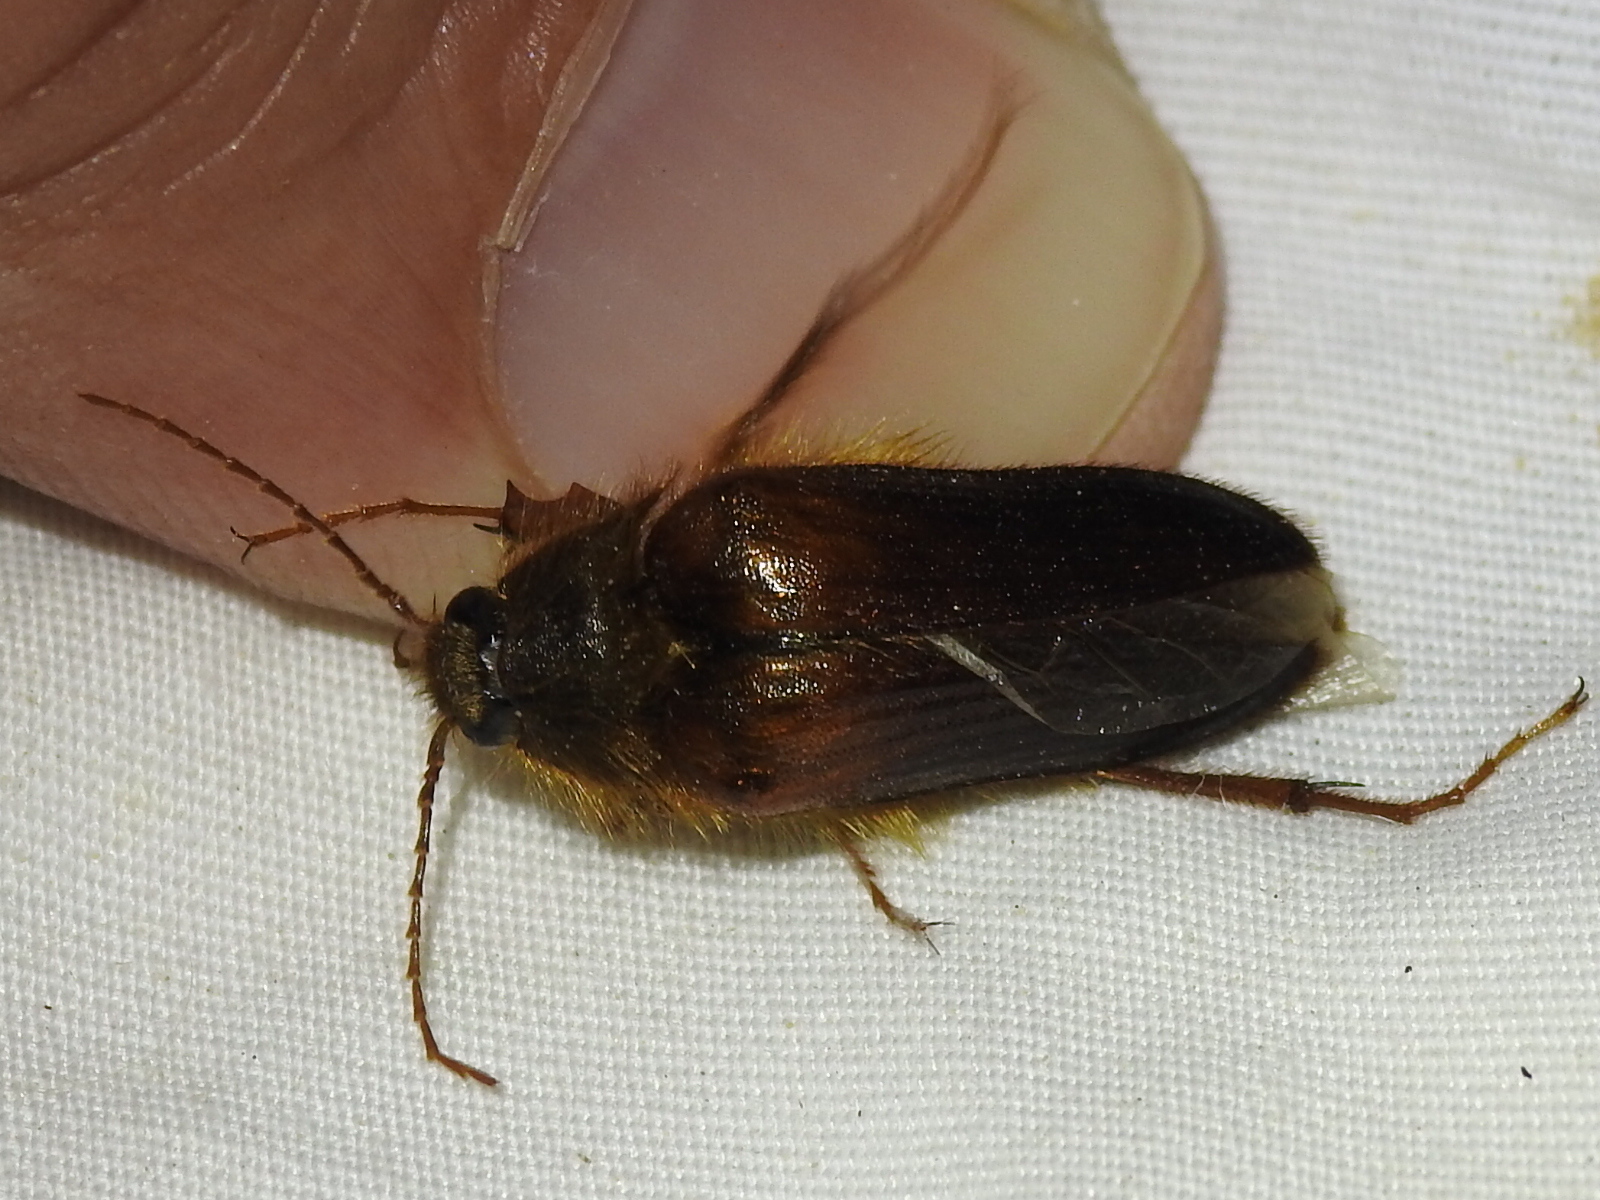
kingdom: Animalia
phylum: Arthropoda
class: Insecta
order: Coleoptera
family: Elateridae
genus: Scaptolenus
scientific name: Scaptolenus
